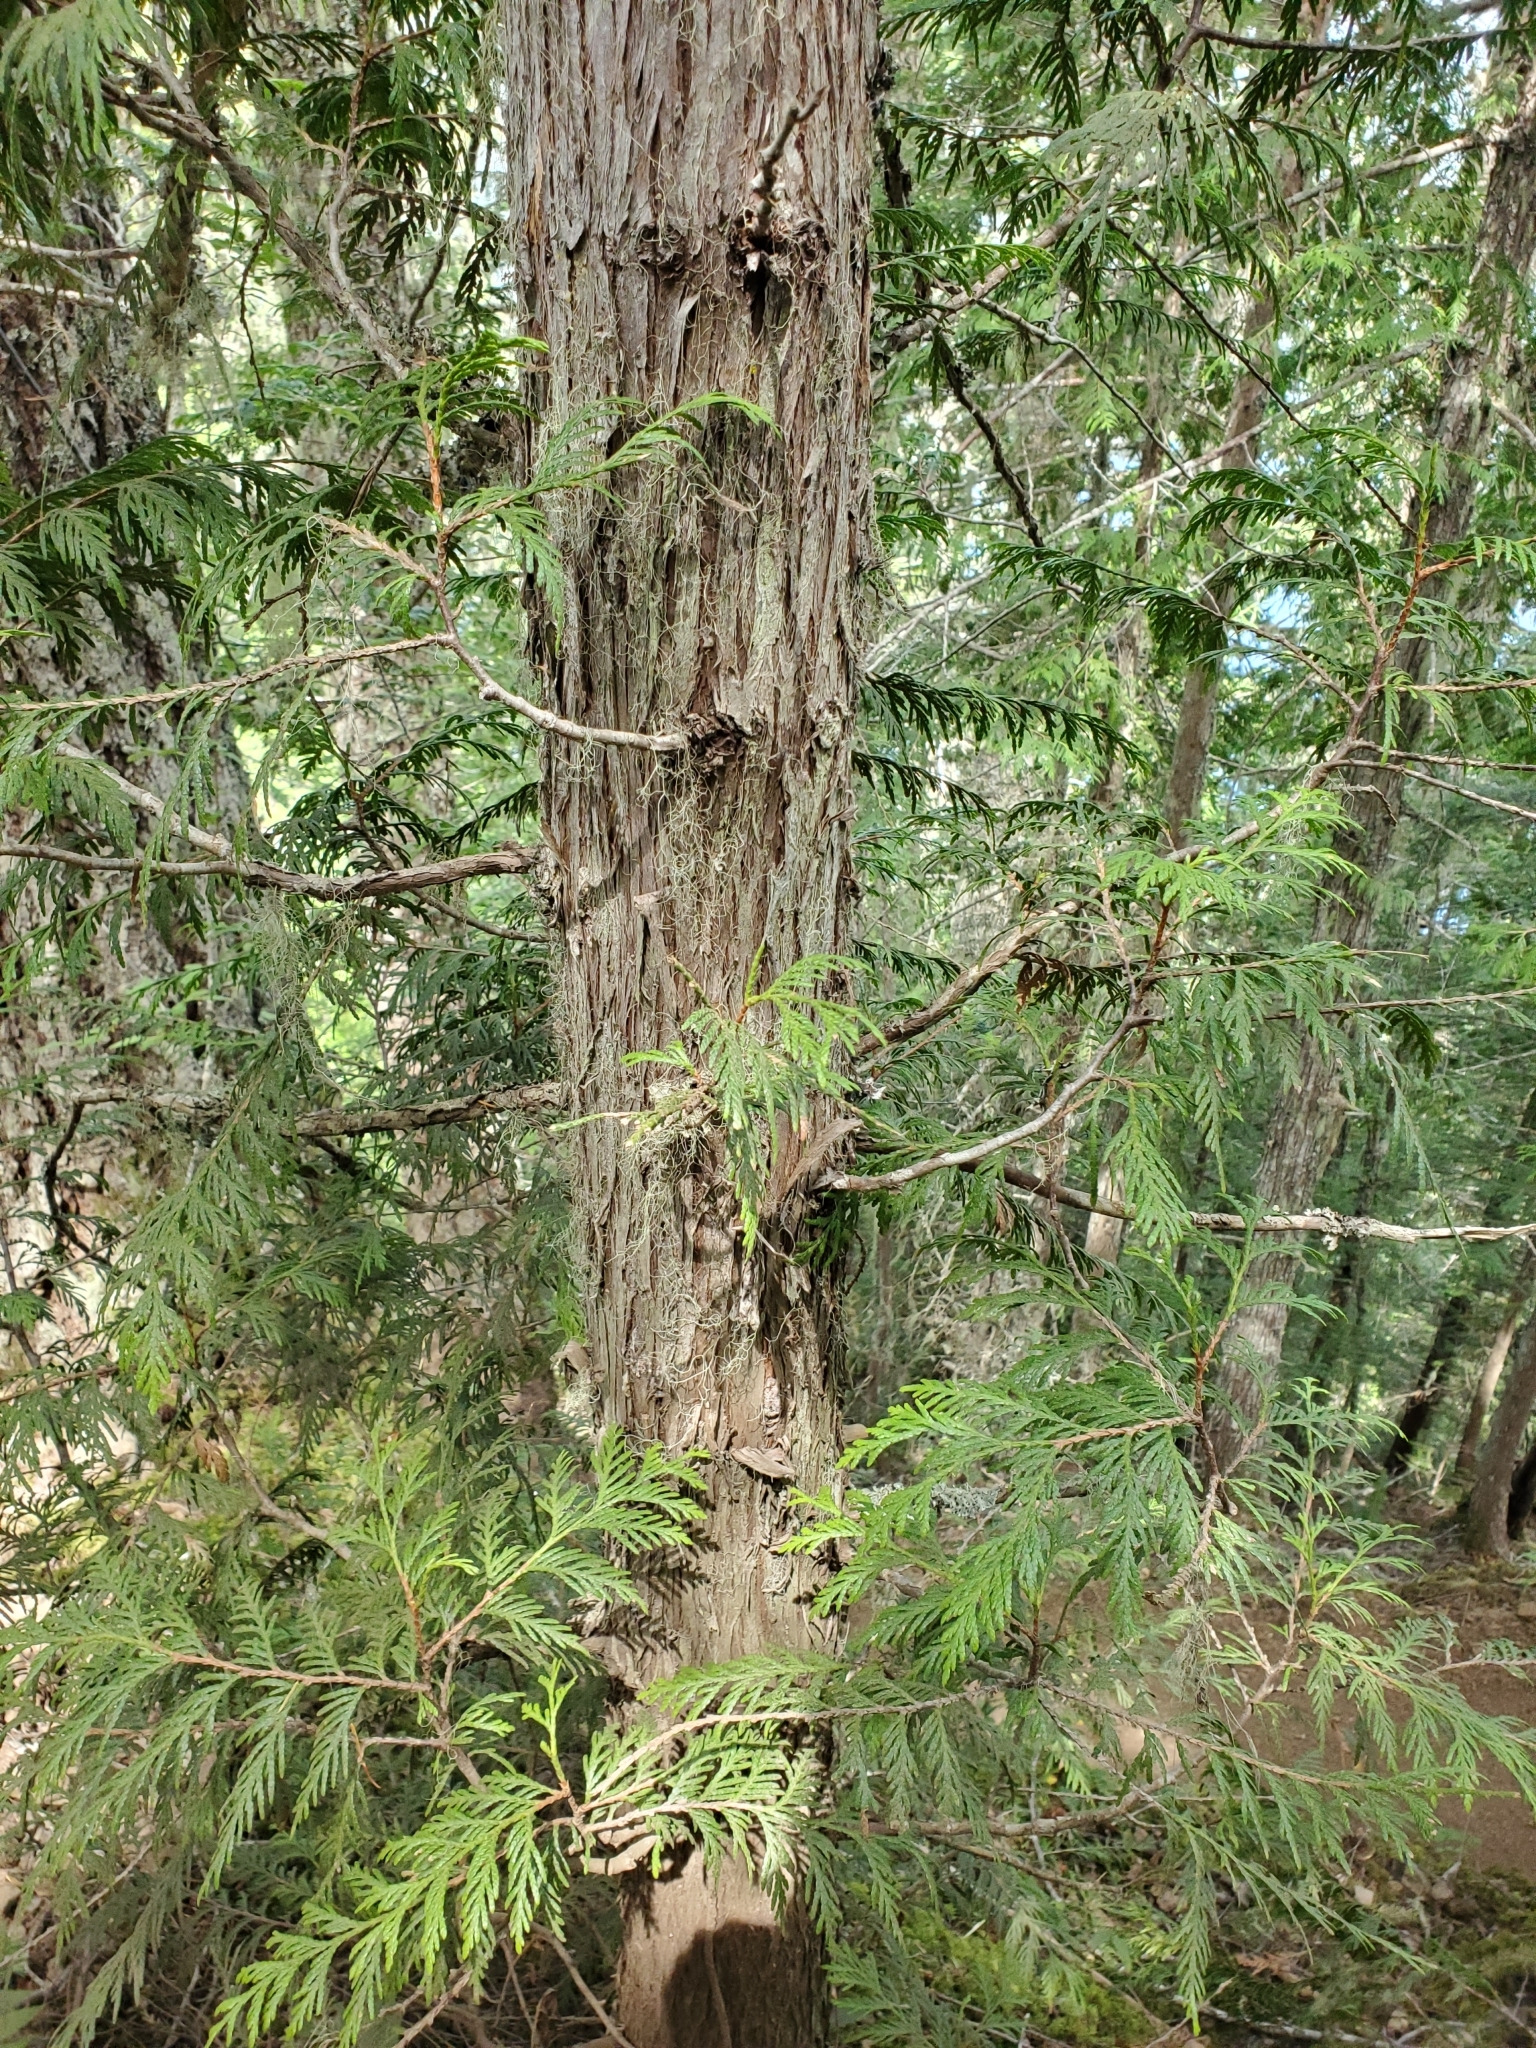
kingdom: Plantae
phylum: Tracheophyta
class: Pinopsida
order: Pinales
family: Cupressaceae
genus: Thuja
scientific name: Thuja plicata
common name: Western red-cedar
